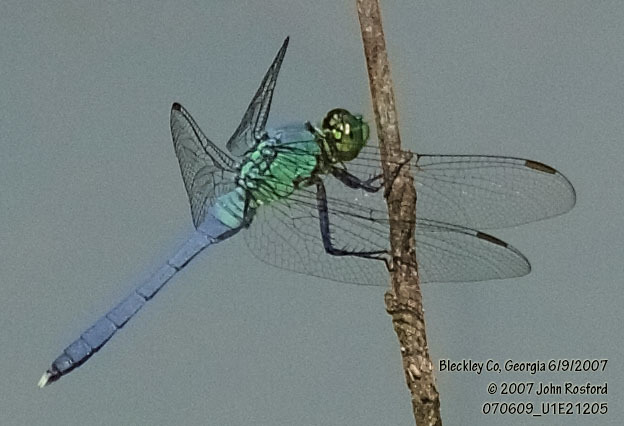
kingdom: Animalia
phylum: Arthropoda
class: Insecta
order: Odonata
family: Libellulidae
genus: Erythemis
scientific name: Erythemis simplicicollis
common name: Eastern pondhawk
